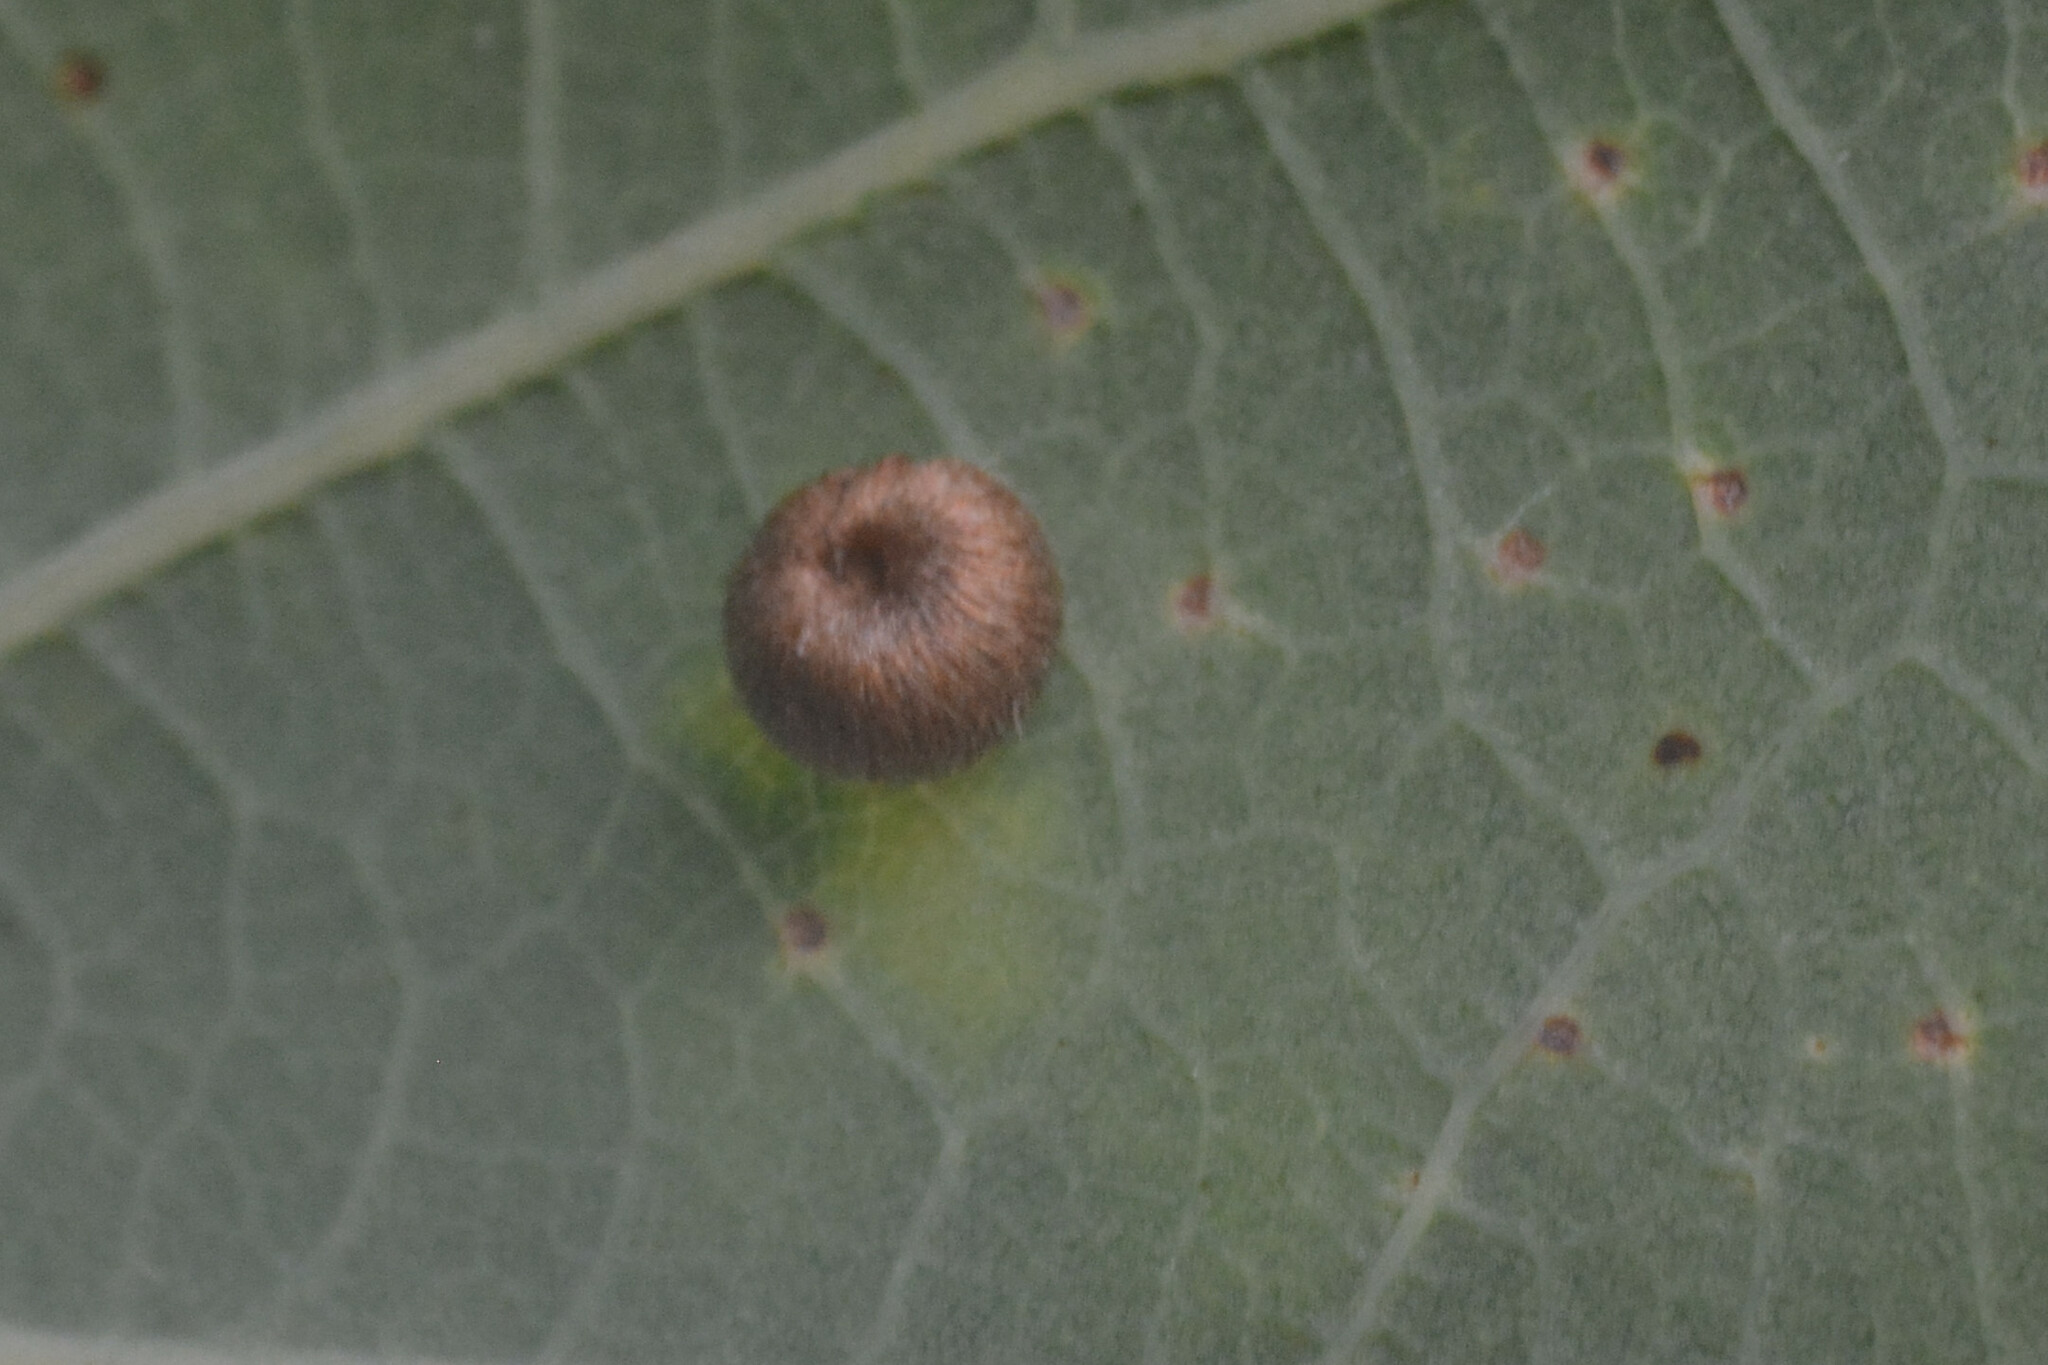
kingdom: Animalia
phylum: Arthropoda
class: Insecta
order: Hymenoptera
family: Cynipidae
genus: Neuroterus
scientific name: Neuroterus numismalis
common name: Silk-button spangle gall
